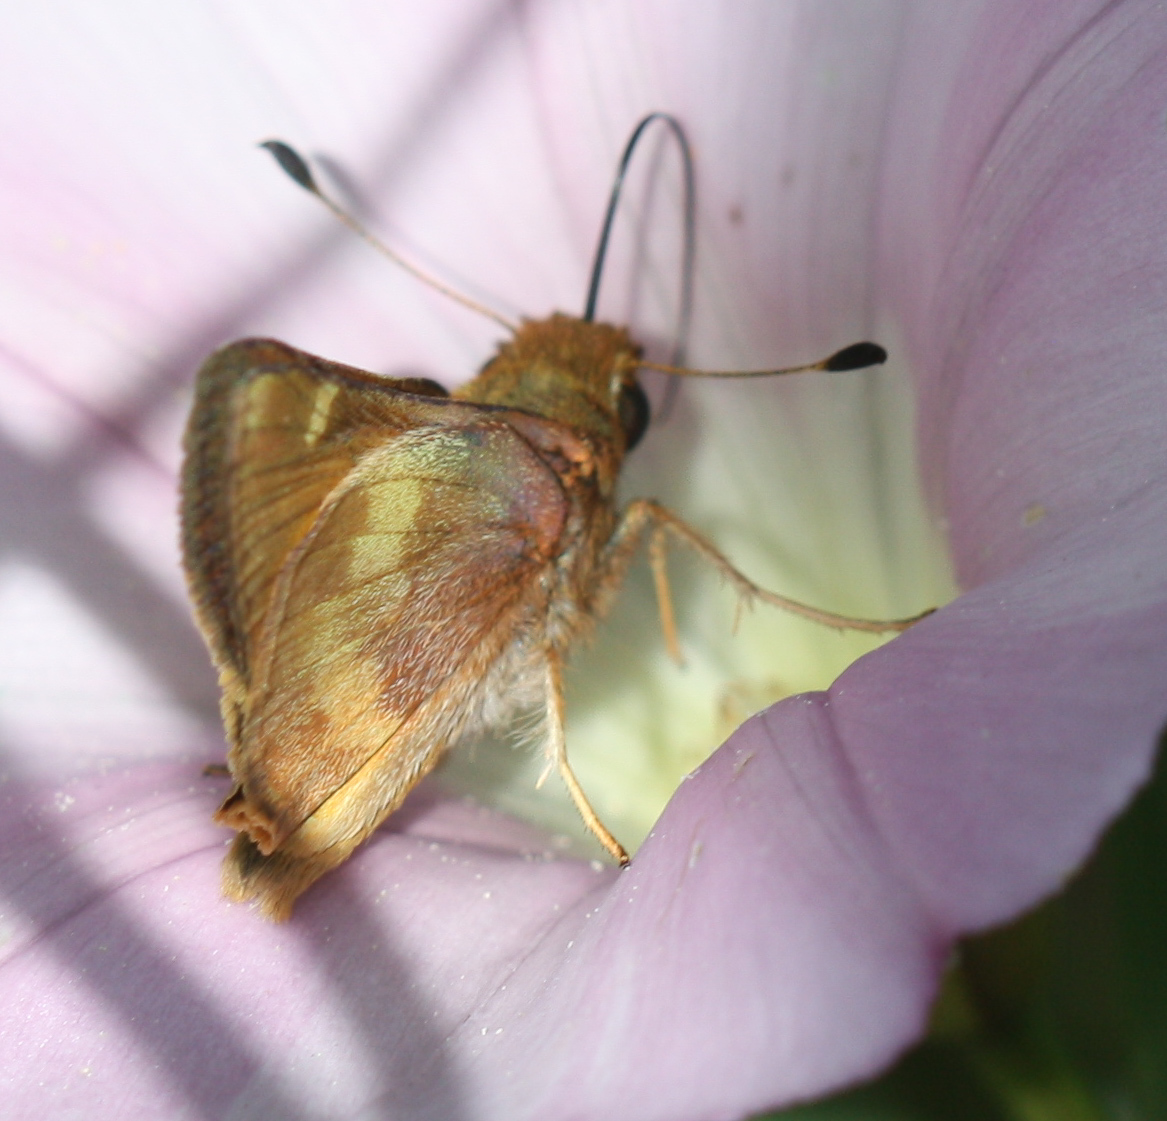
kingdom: Animalia
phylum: Arthropoda
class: Insecta
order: Lepidoptera
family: Hesperiidae
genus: Lon
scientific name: Lon melane
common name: Umber skipper
